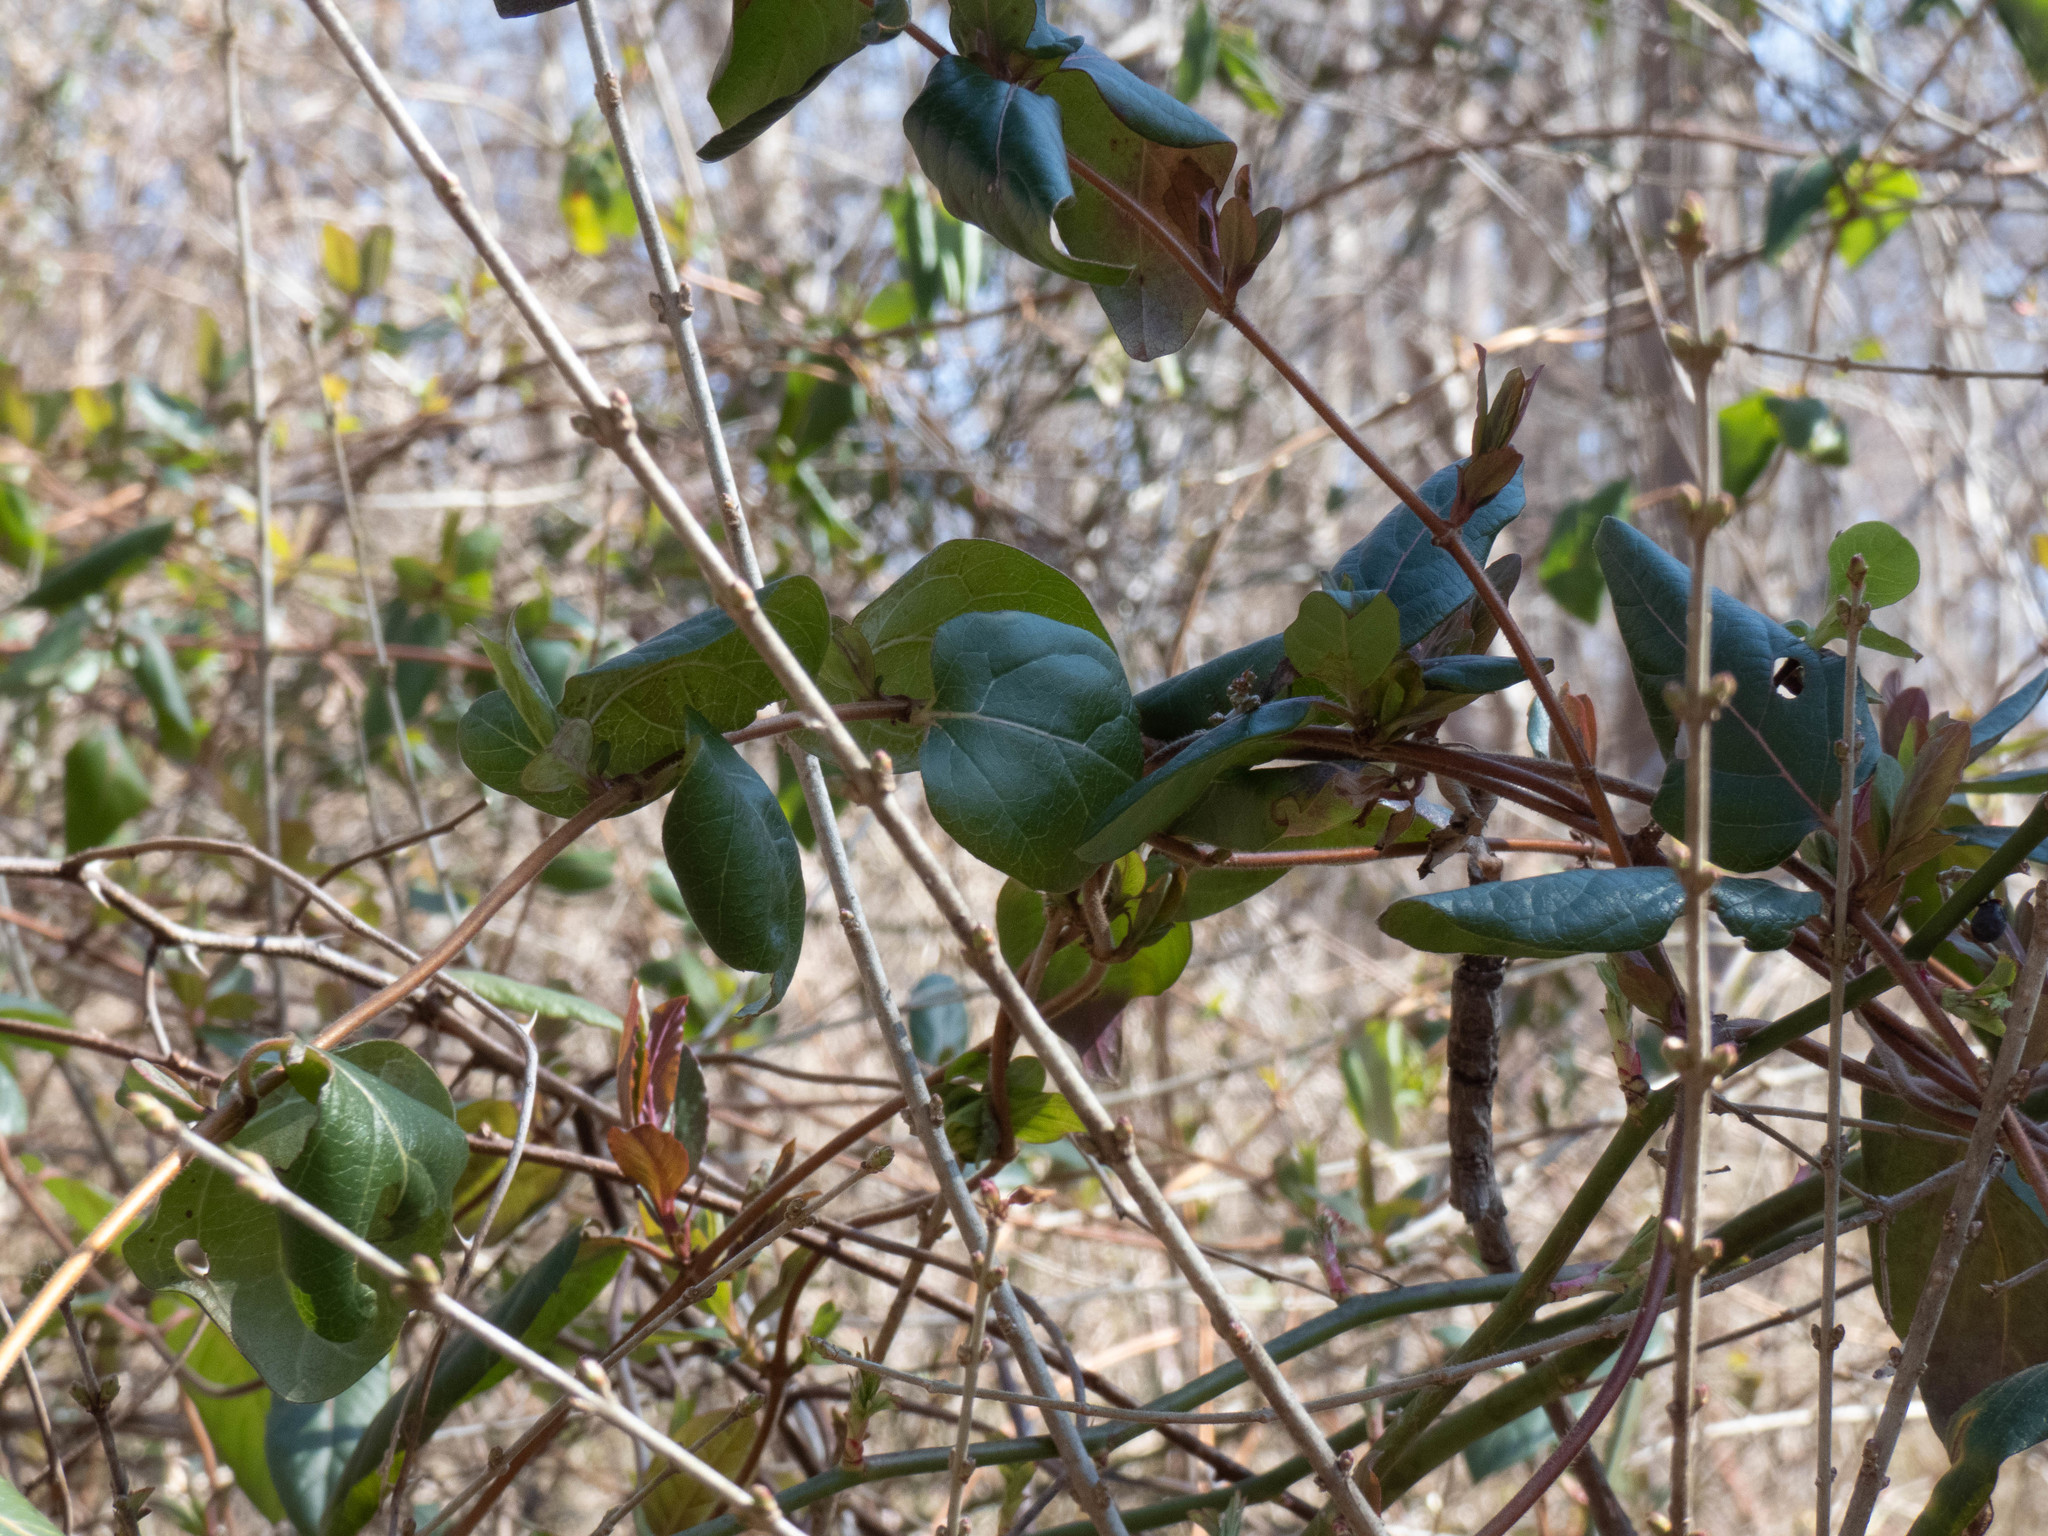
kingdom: Plantae
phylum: Tracheophyta
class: Magnoliopsida
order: Dipsacales
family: Caprifoliaceae
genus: Lonicera
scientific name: Lonicera japonica
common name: Japanese honeysuckle
